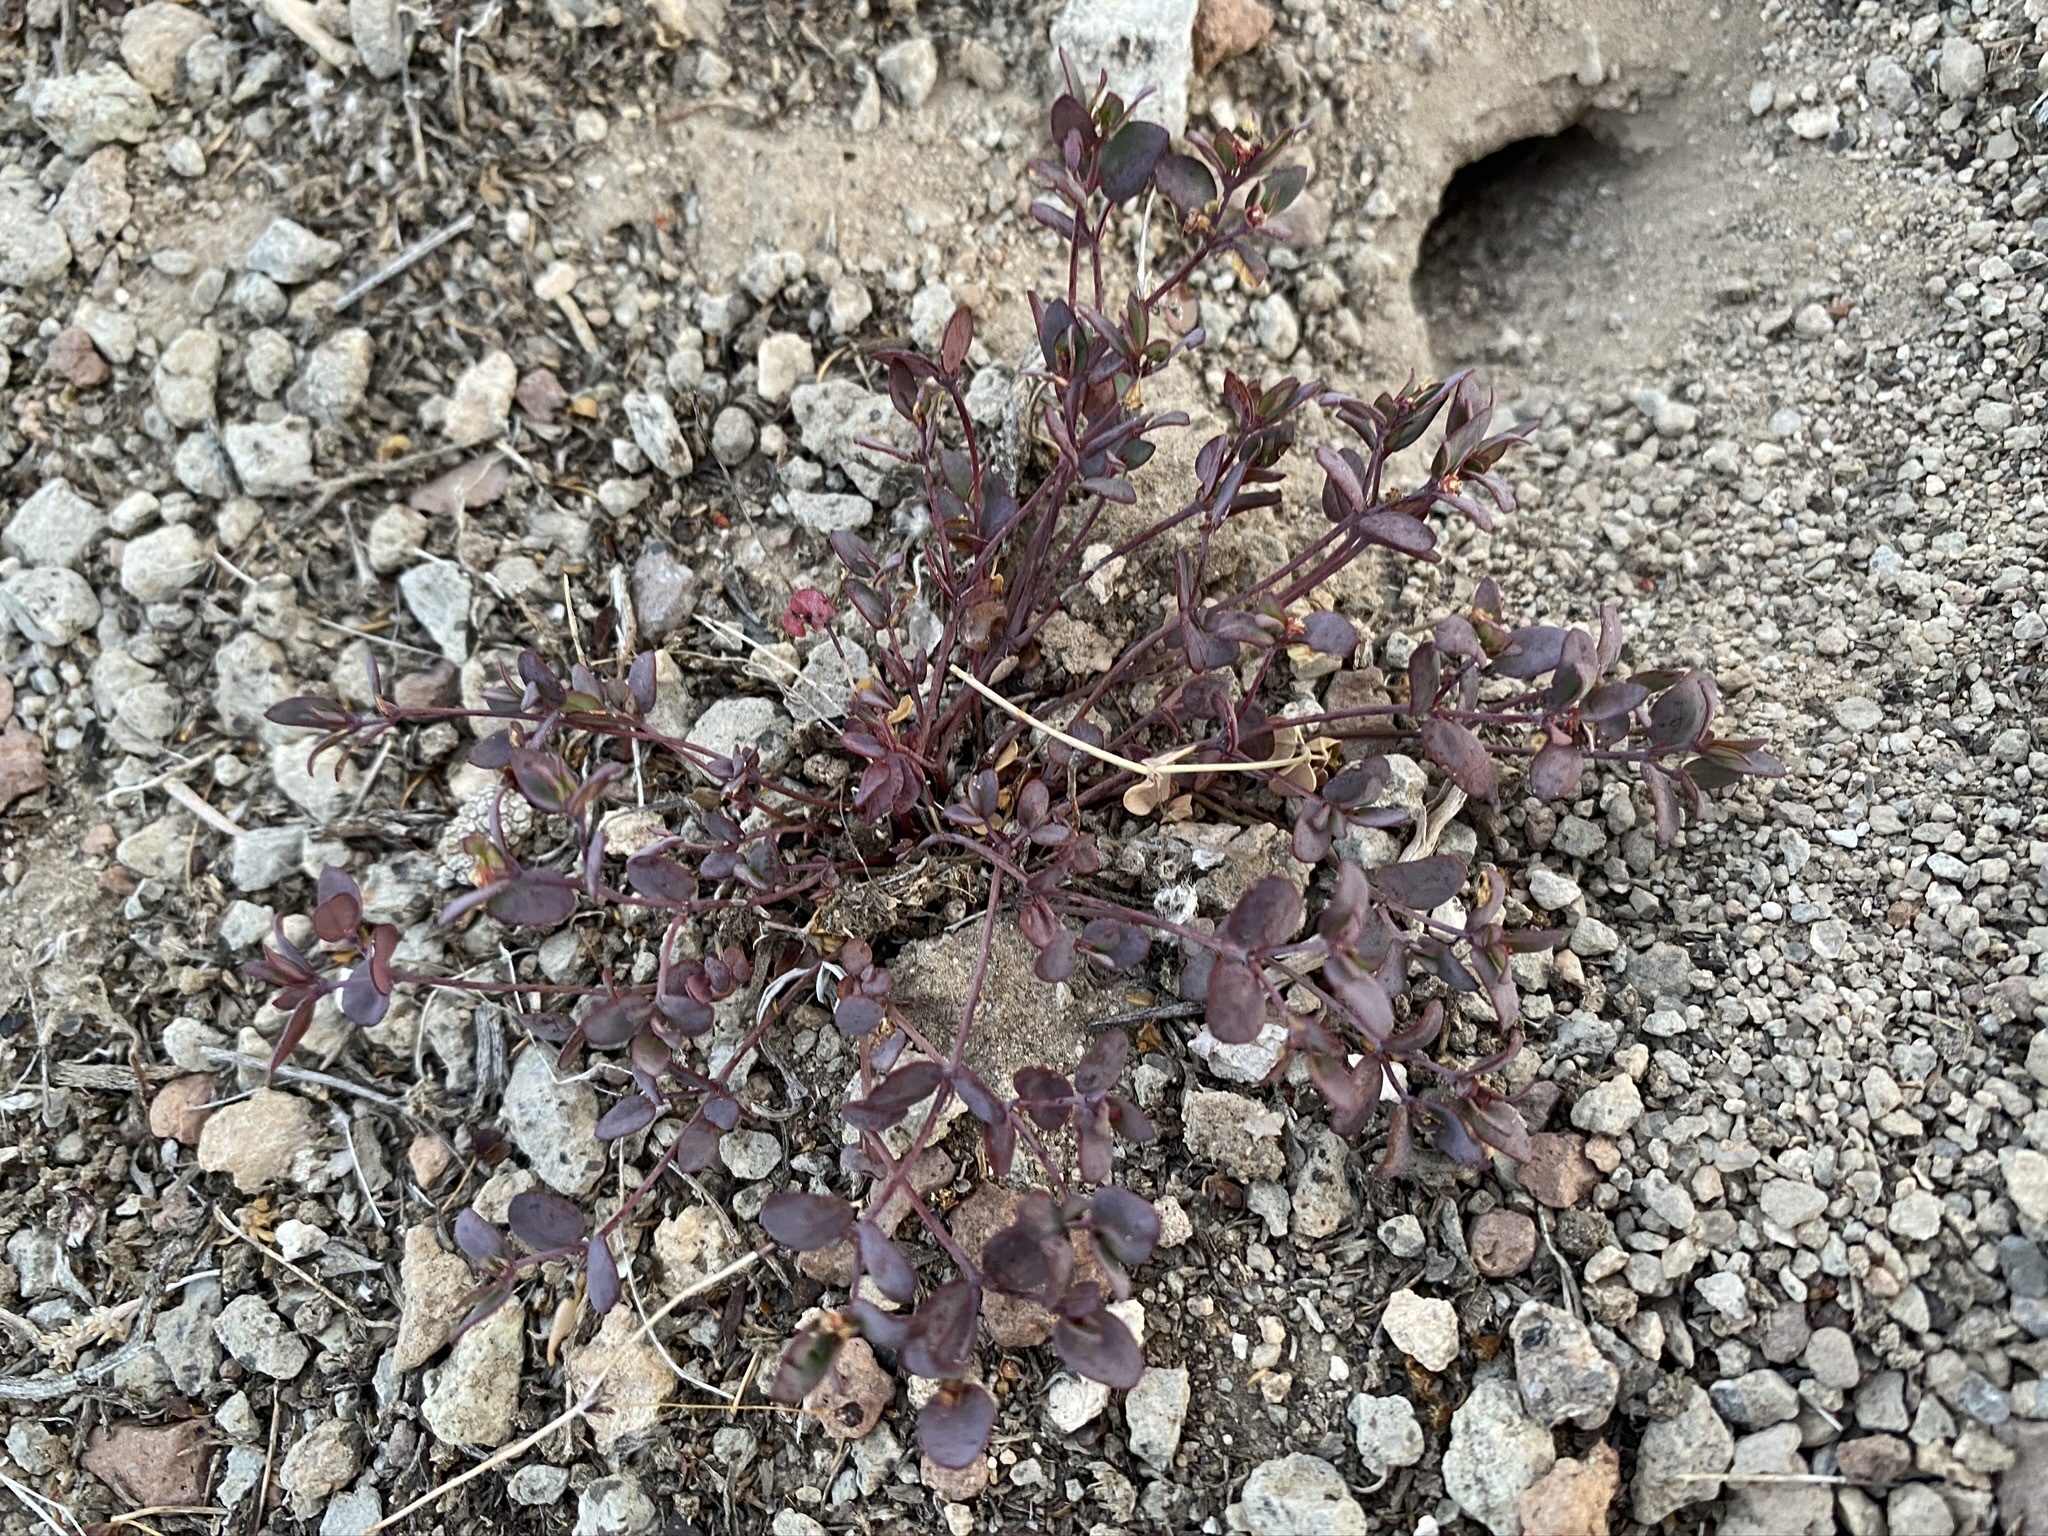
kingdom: Plantae
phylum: Tracheophyta
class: Magnoliopsida
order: Malpighiales
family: Euphorbiaceae
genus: Euphorbia
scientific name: Euphorbia fendleri
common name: Fendler's euphorbia
